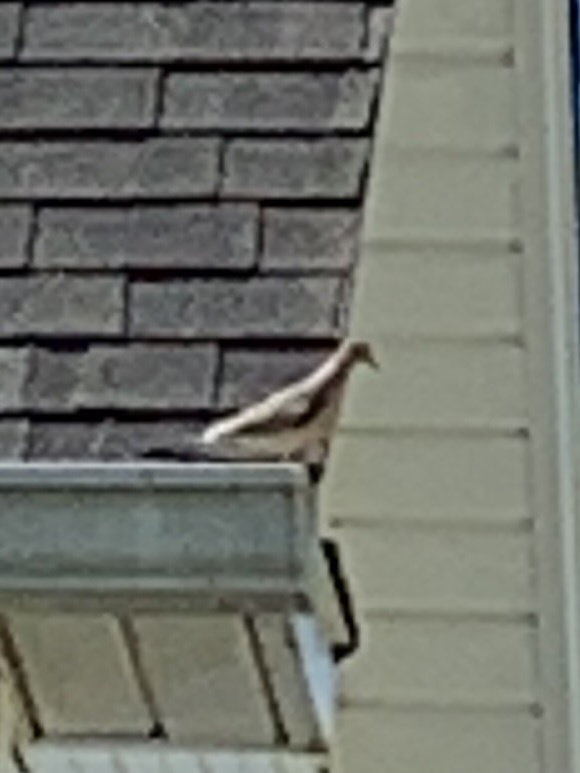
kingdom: Animalia
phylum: Chordata
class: Aves
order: Columbiformes
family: Columbidae
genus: Zenaida
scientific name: Zenaida macroura
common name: Mourning dove
